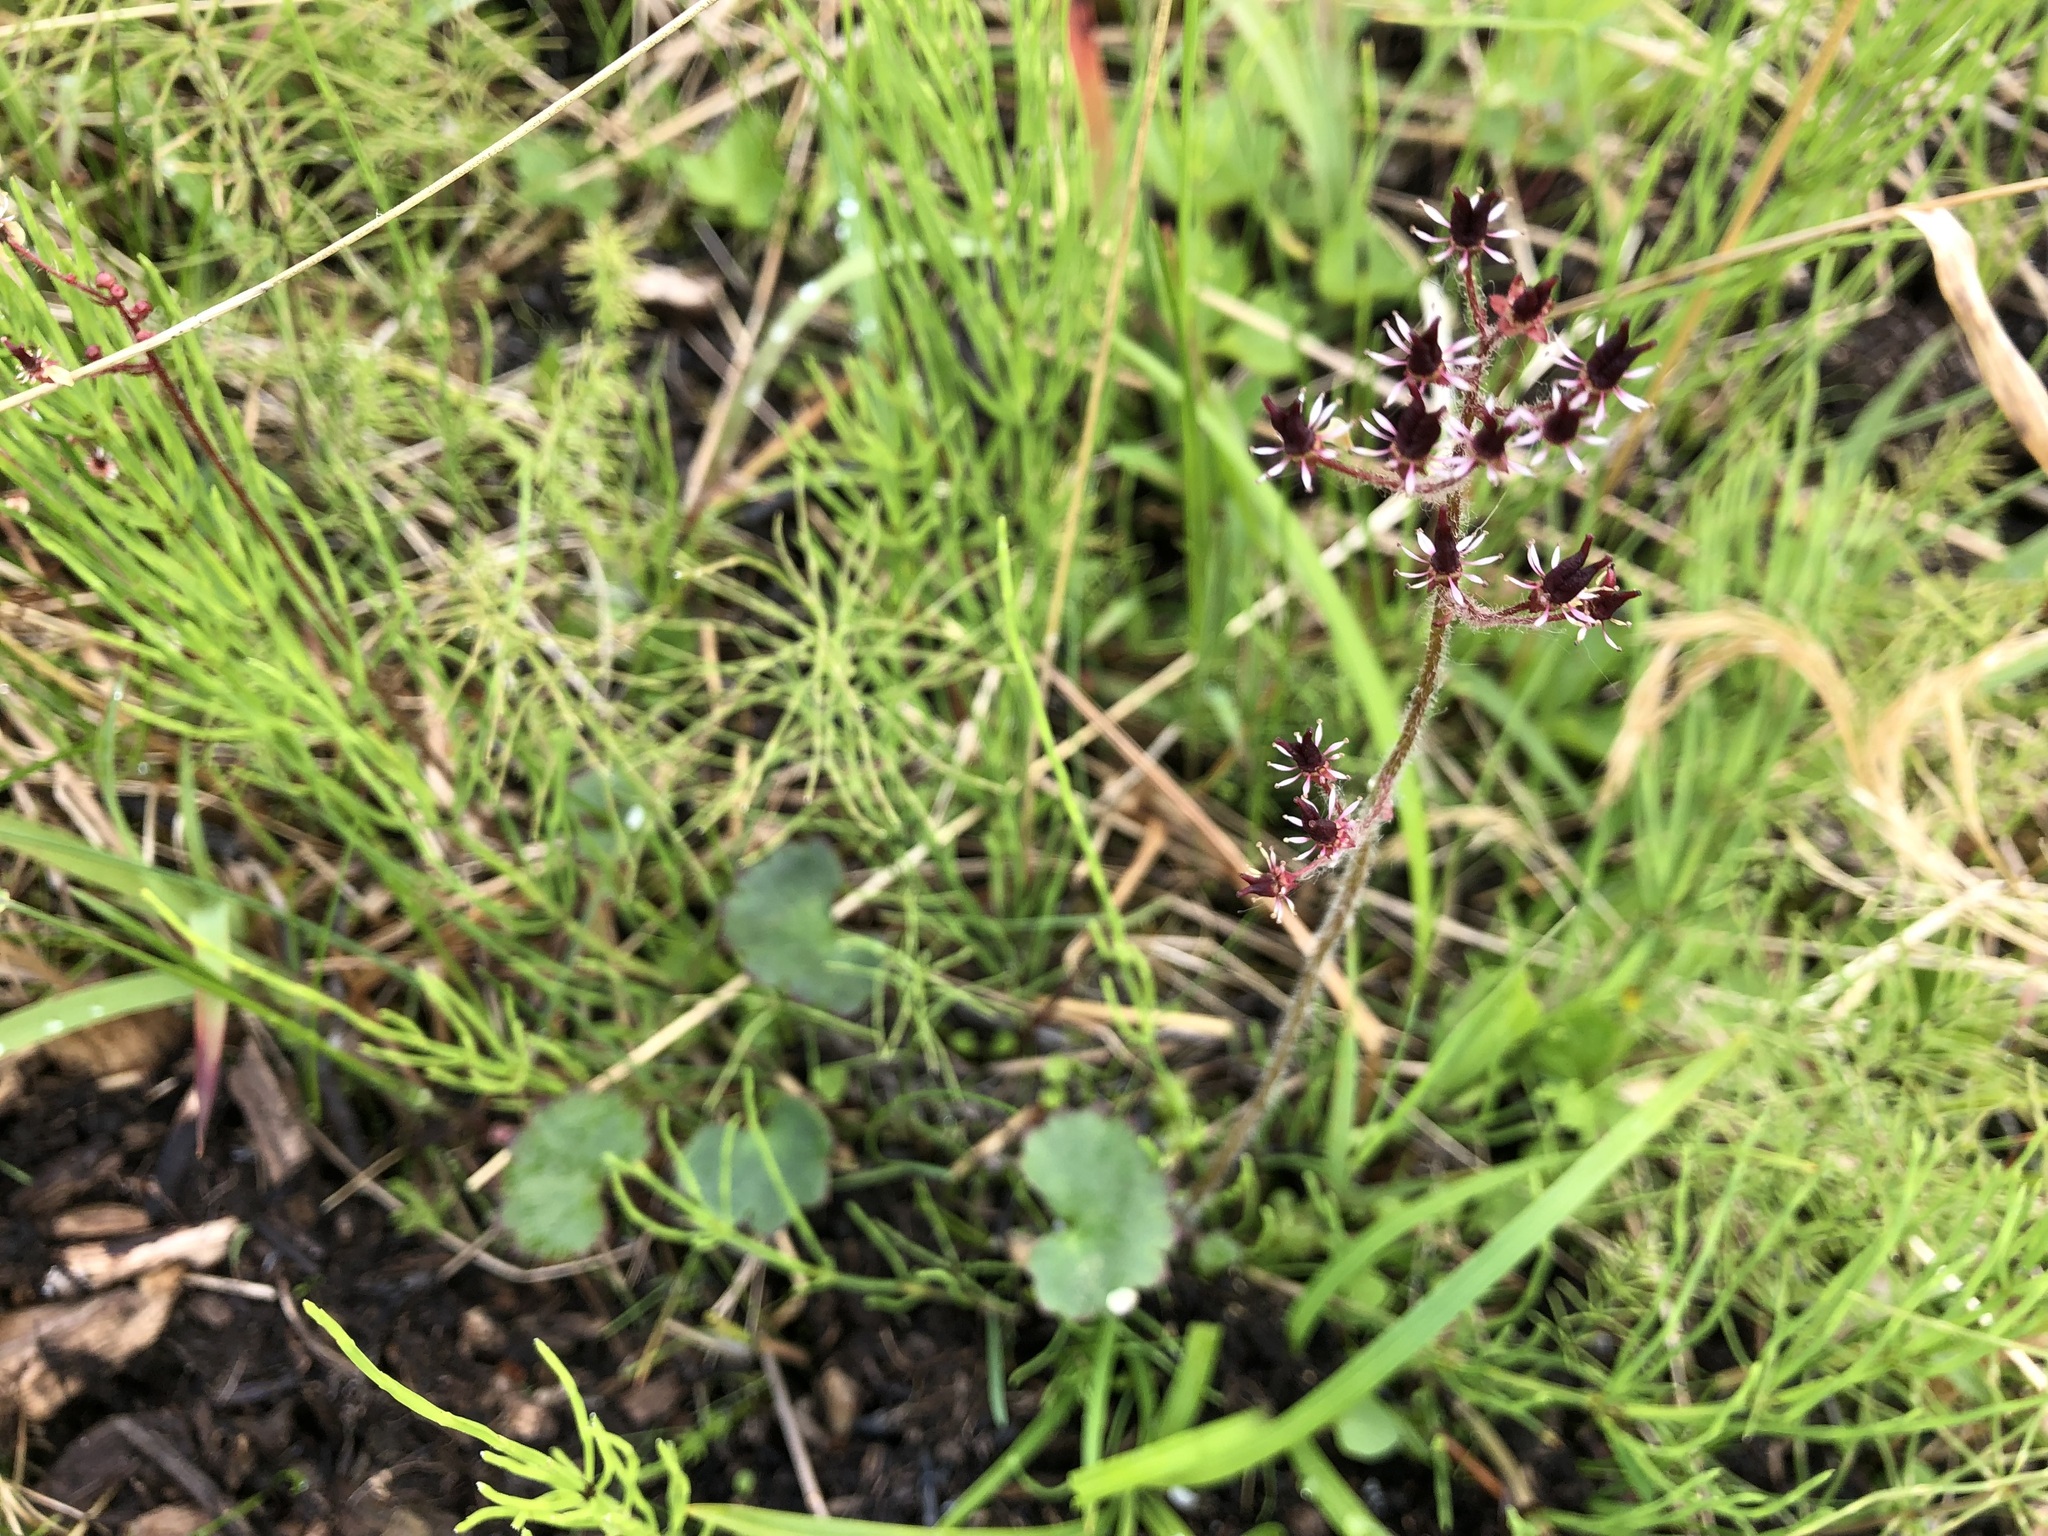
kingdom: Plantae
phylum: Tracheophyta
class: Magnoliopsida
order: Saxifragales
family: Saxifragaceae
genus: Micranthes
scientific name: Micranthes nelsoniana
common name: Nelson's saxifrage
